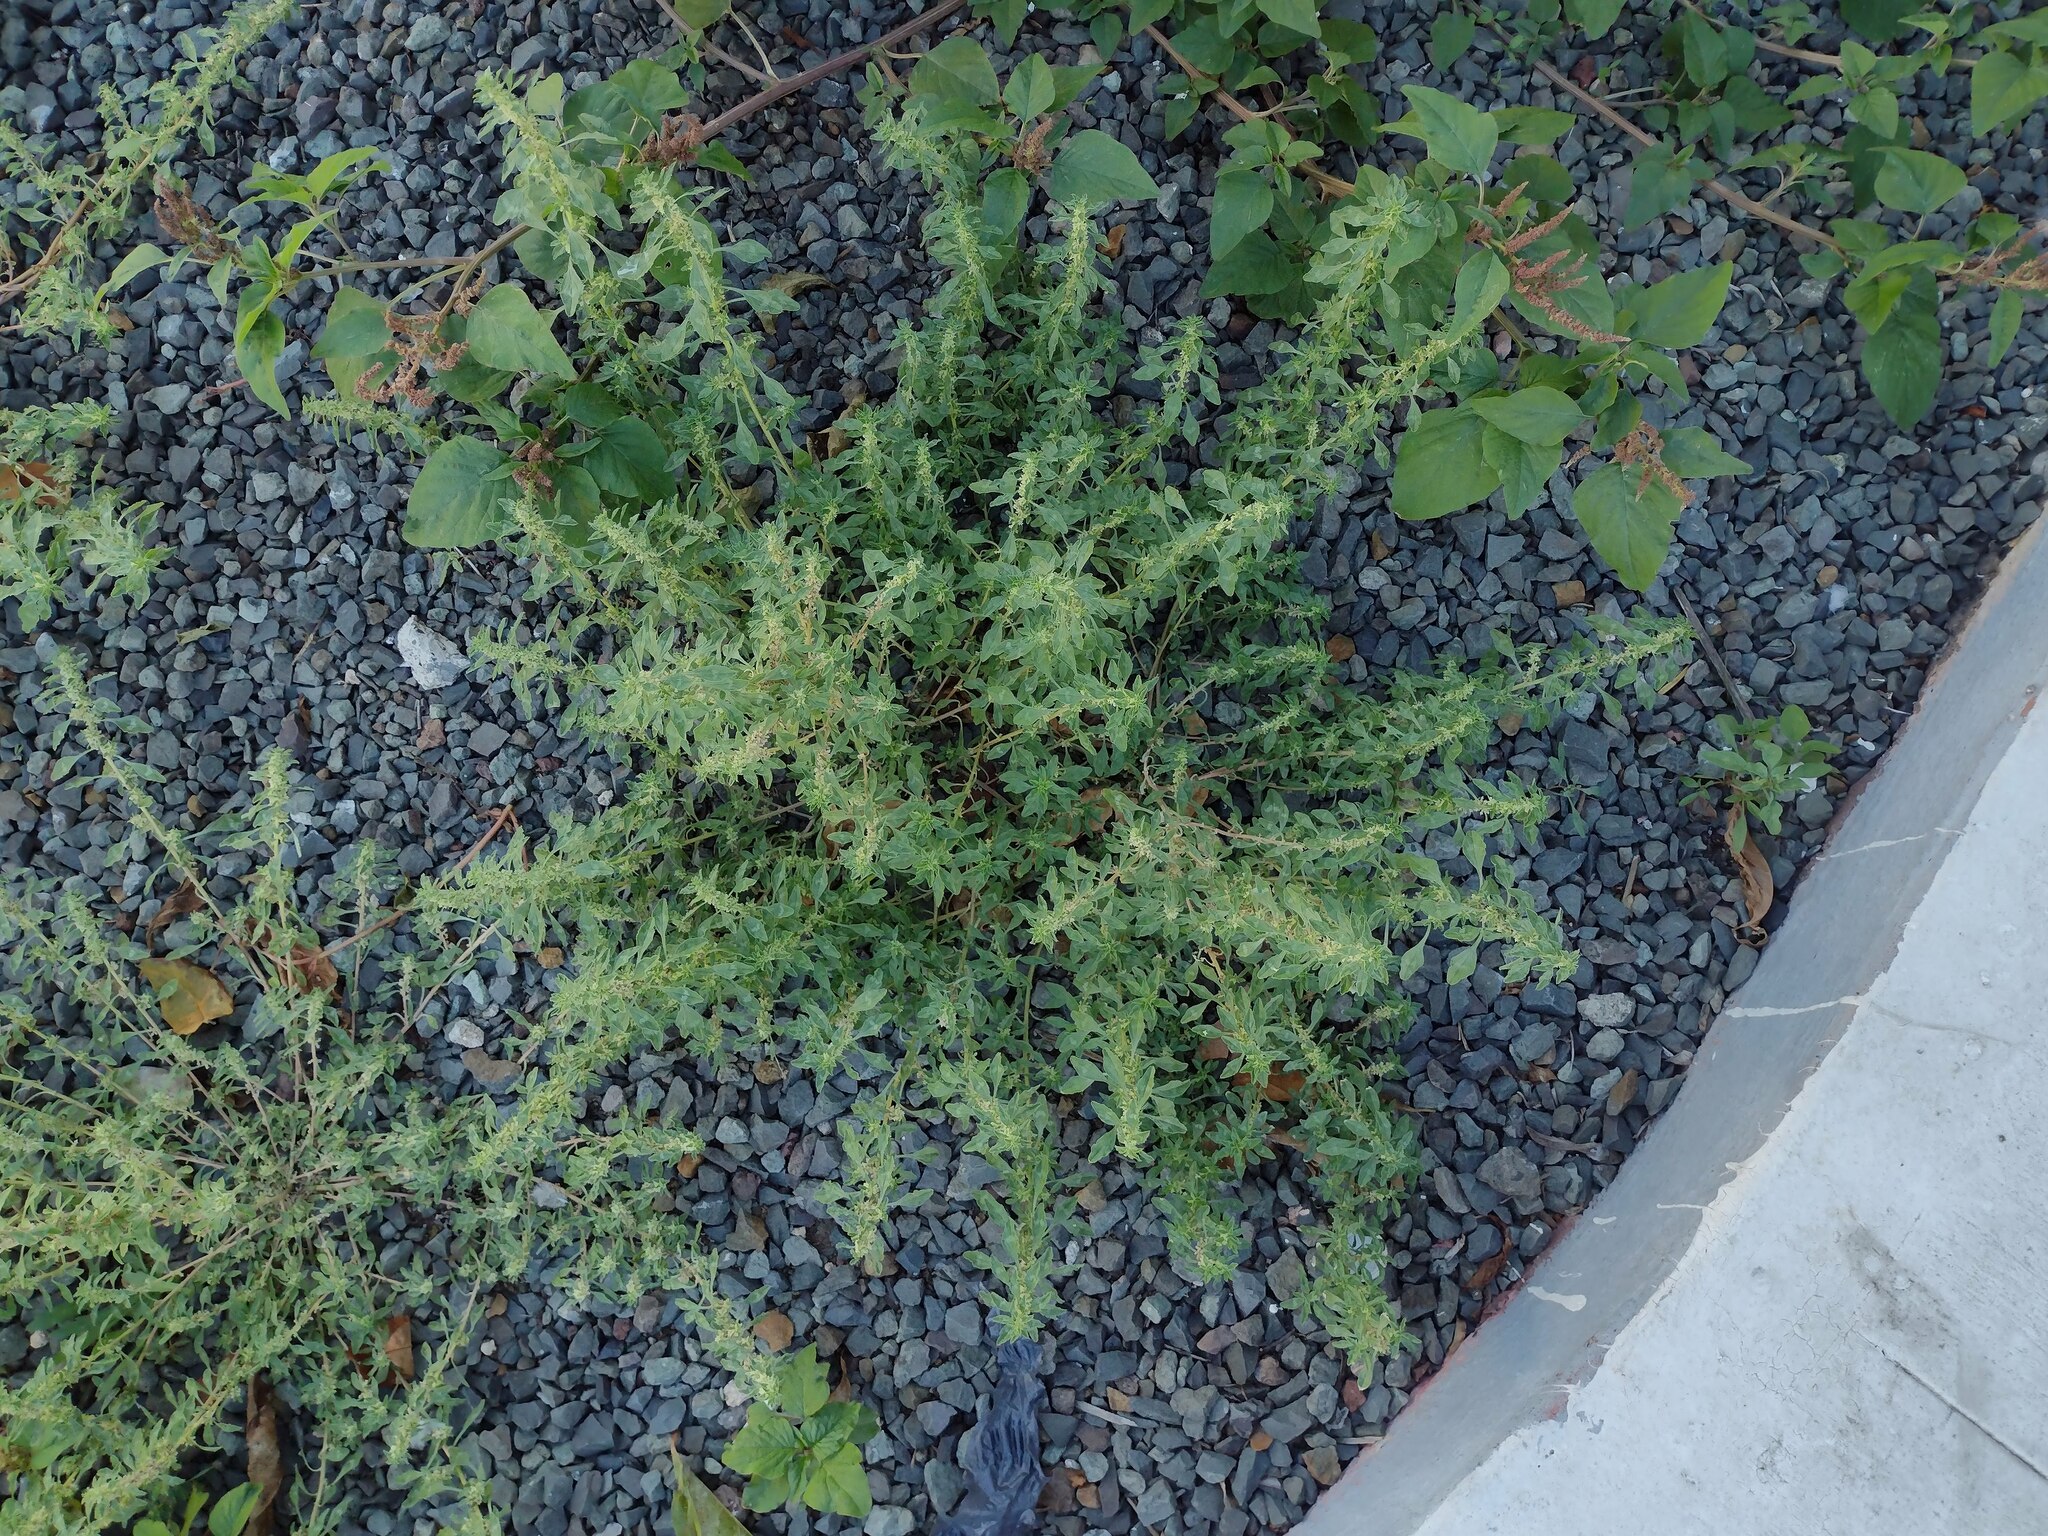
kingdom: Plantae
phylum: Tracheophyta
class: Magnoliopsida
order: Caryophyllales
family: Amaranthaceae
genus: Amaranthus
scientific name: Amaranthus polygonoides
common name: Tropical amaranth
